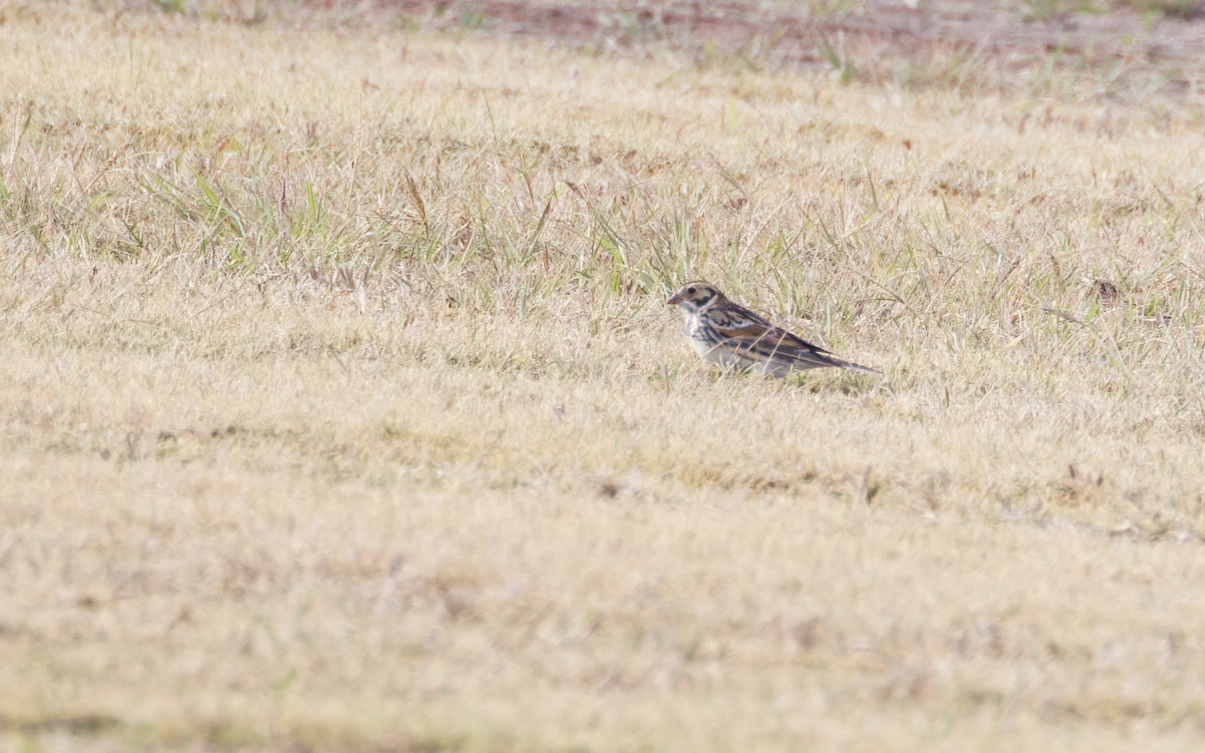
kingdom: Animalia
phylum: Chordata
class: Aves
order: Passeriformes
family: Calcariidae
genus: Calcarius
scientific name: Calcarius lapponicus
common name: Lapland longspur
